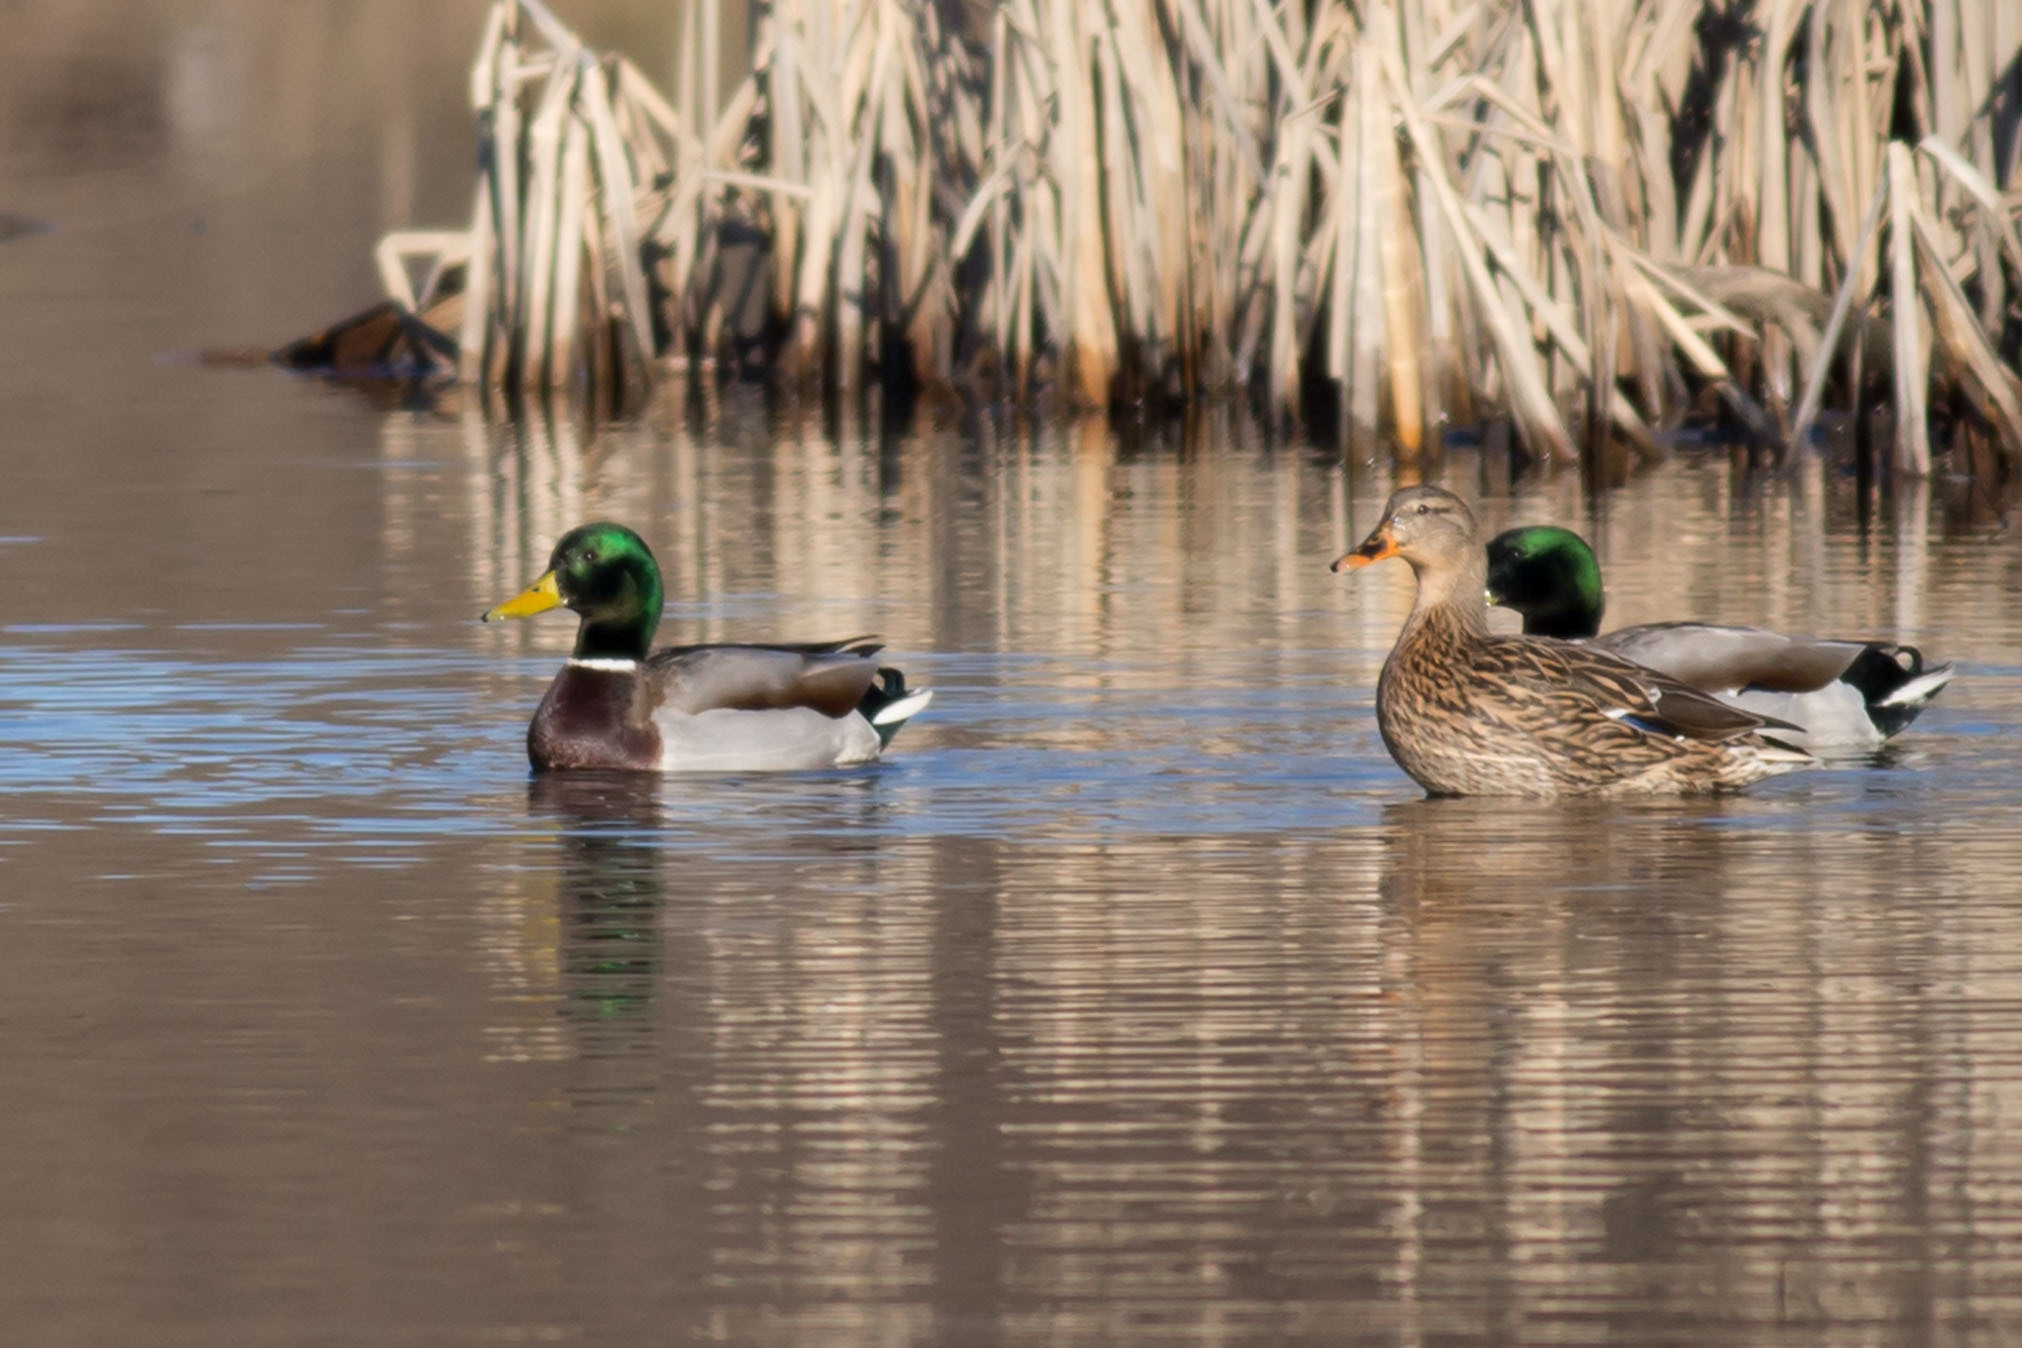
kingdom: Animalia
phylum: Chordata
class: Aves
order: Anseriformes
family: Anatidae
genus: Anas
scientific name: Anas platyrhynchos
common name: Mallard
